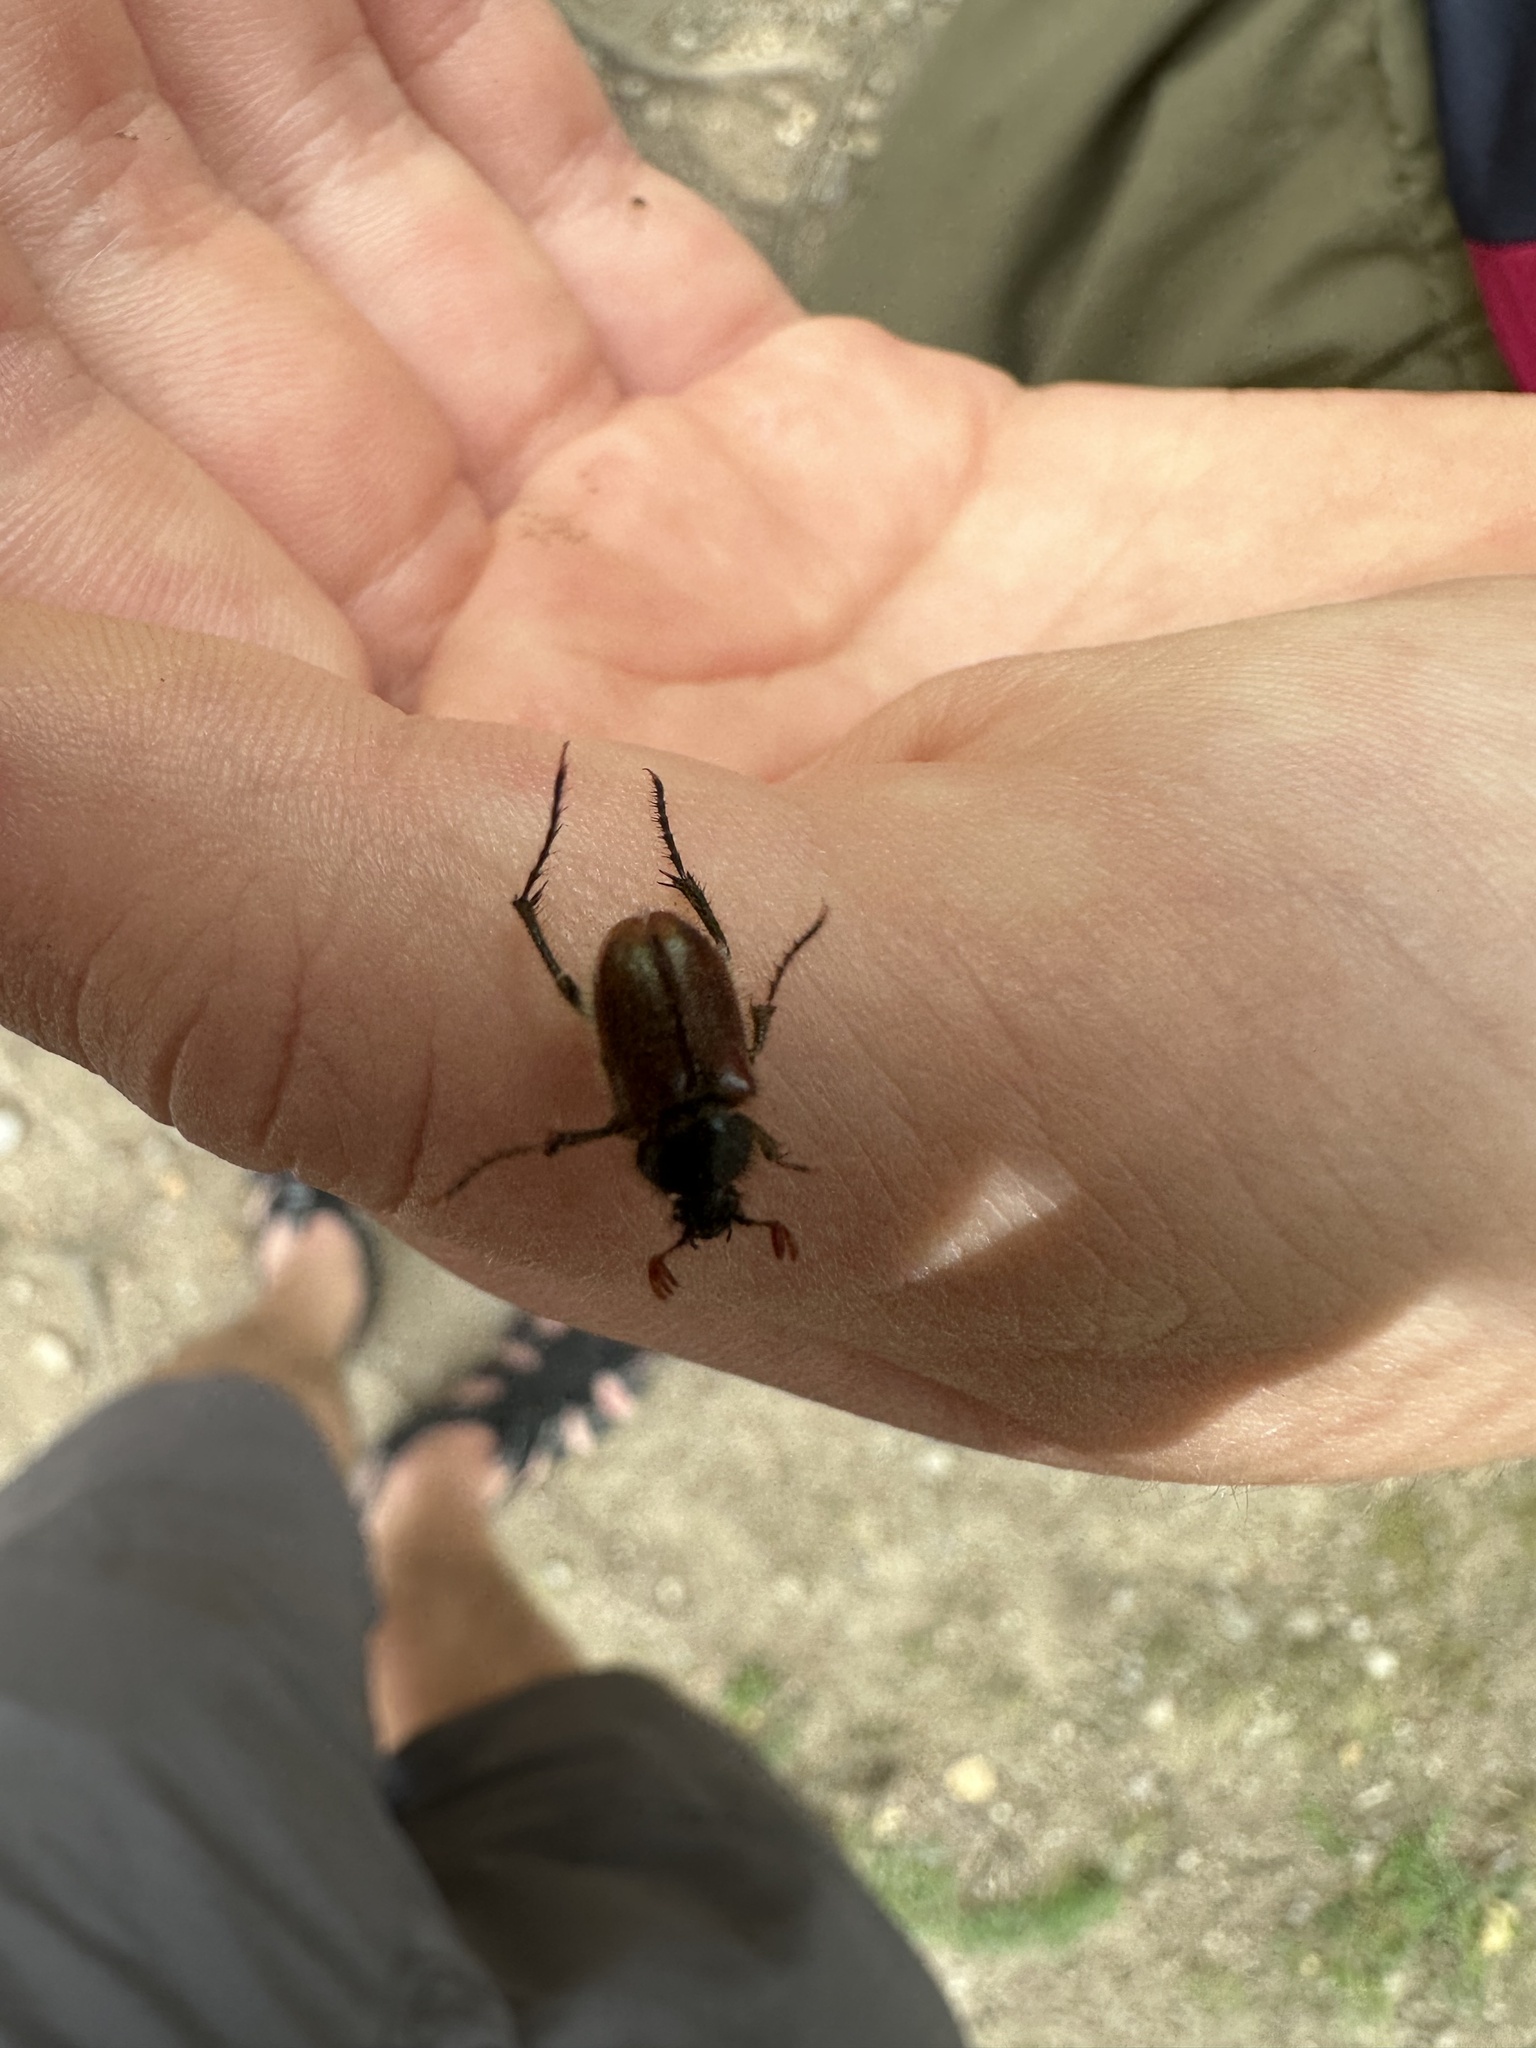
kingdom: Animalia
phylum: Arthropoda
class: Insecta
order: Coleoptera
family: Glaphyridae
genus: Amphicoma
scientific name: Amphicoma abdominalis
